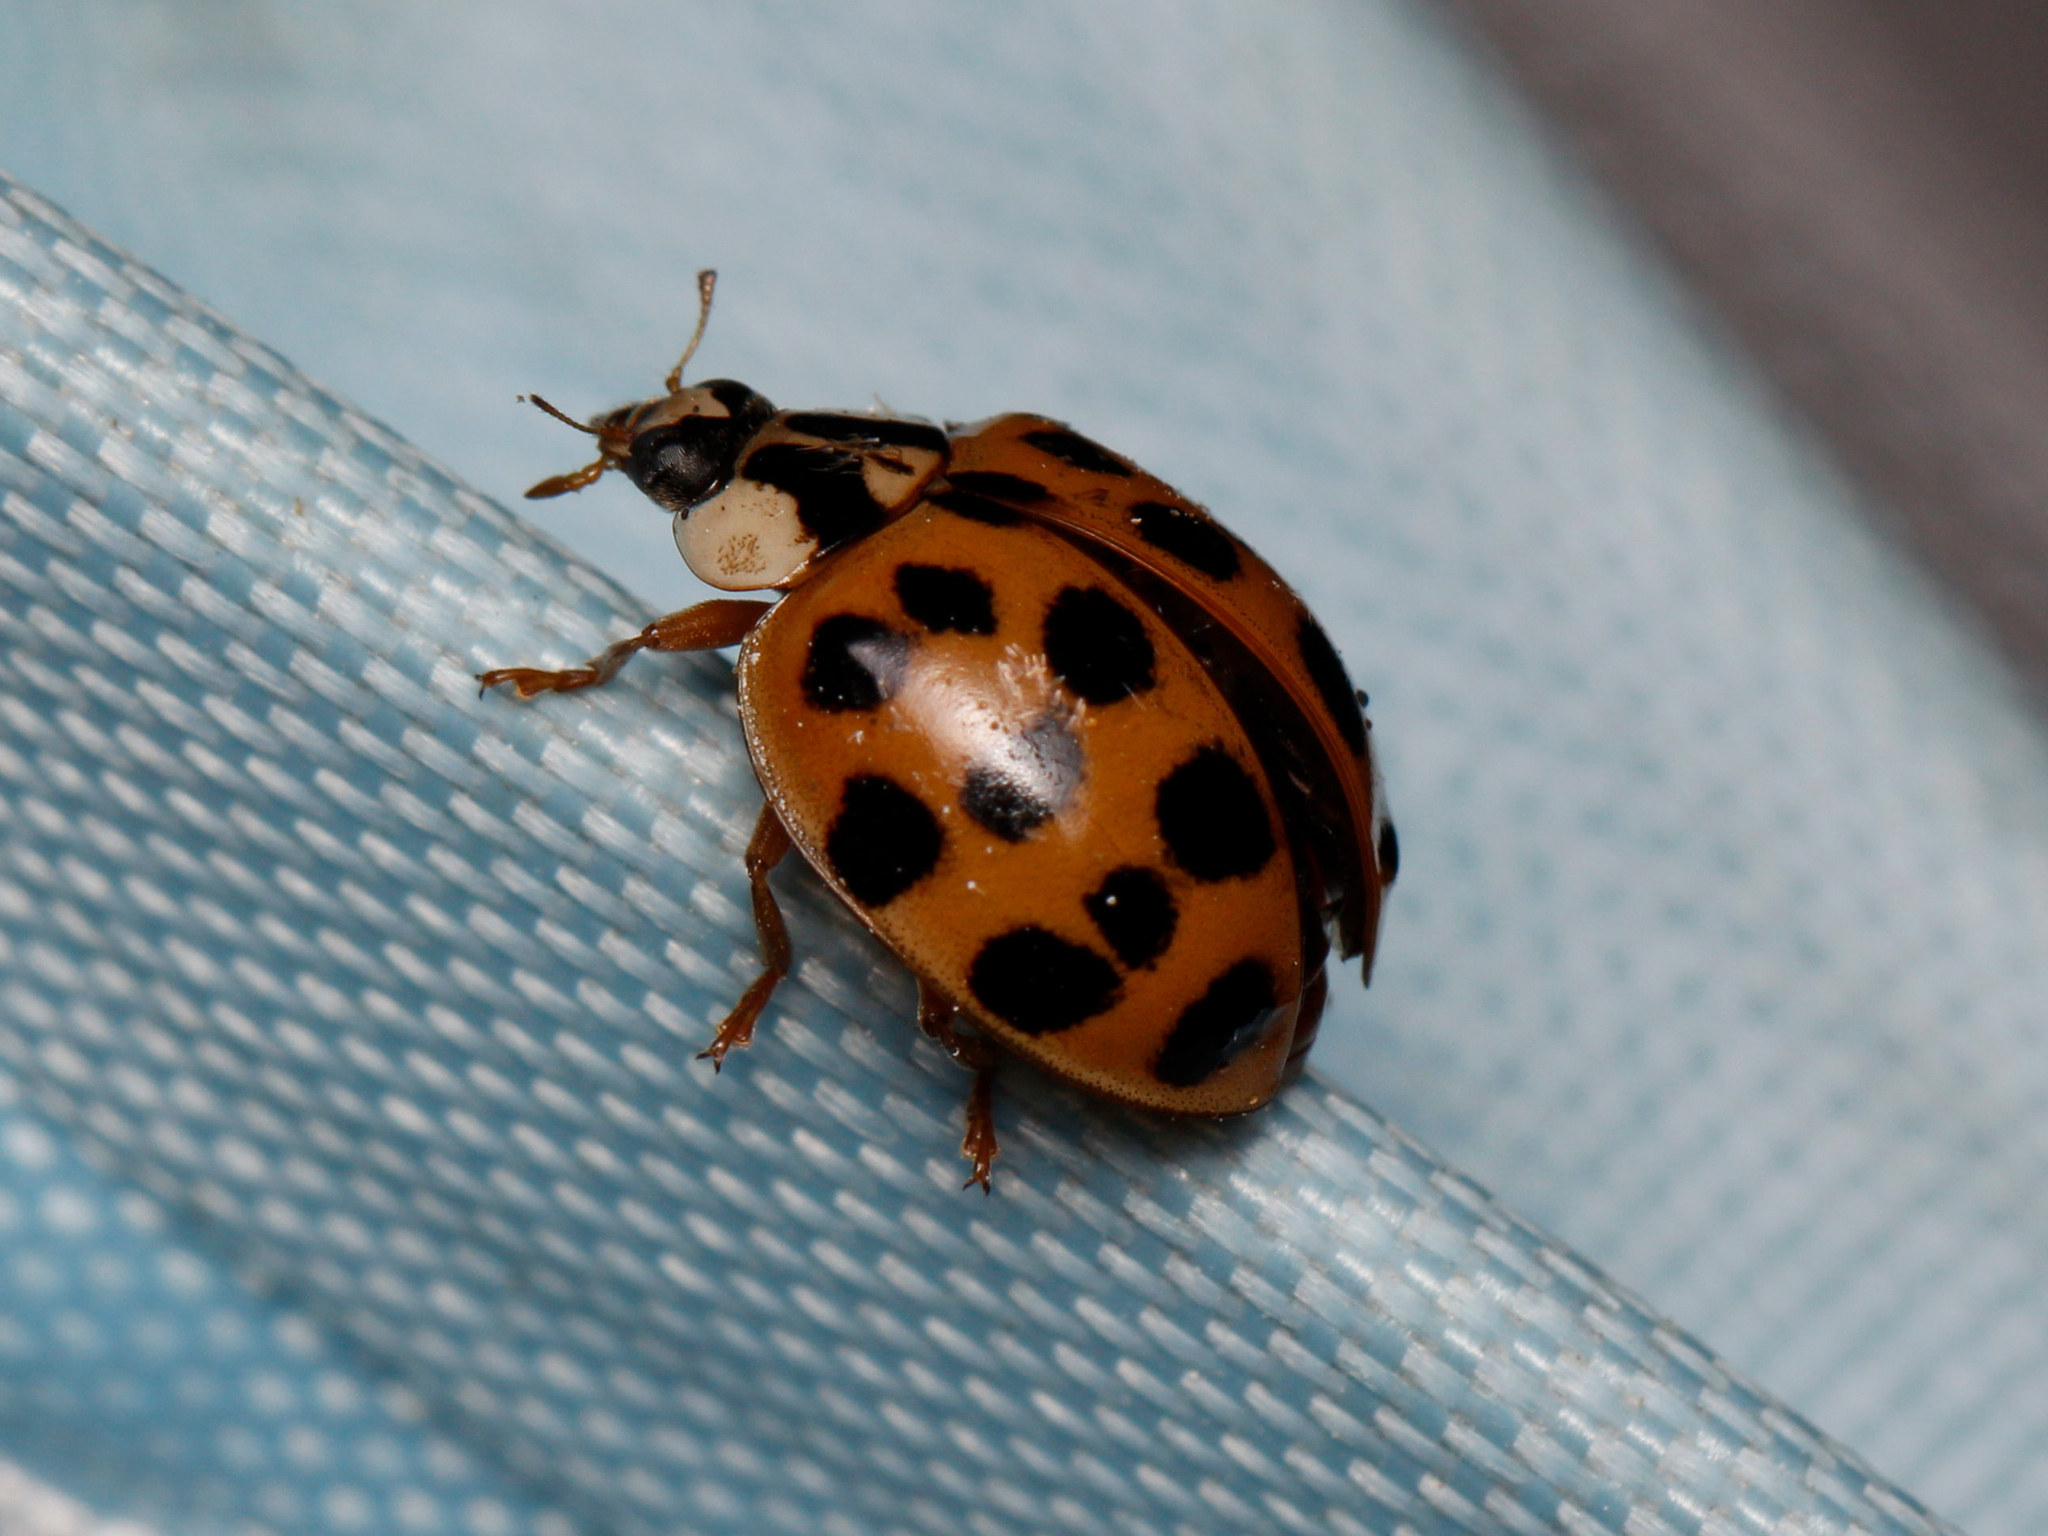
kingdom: Animalia
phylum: Arthropoda
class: Insecta
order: Coleoptera
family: Coccinellidae
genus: Harmonia
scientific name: Harmonia axyridis
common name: Harlequin ladybird
